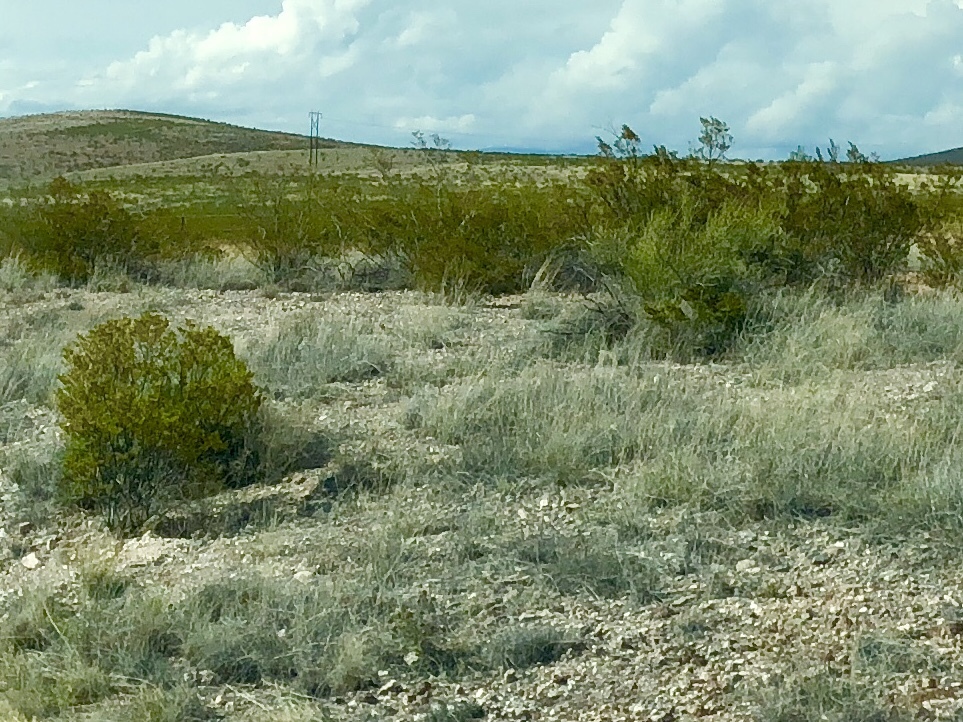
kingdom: Plantae
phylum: Tracheophyta
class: Magnoliopsida
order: Zygophyllales
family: Zygophyllaceae
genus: Larrea
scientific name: Larrea tridentata
